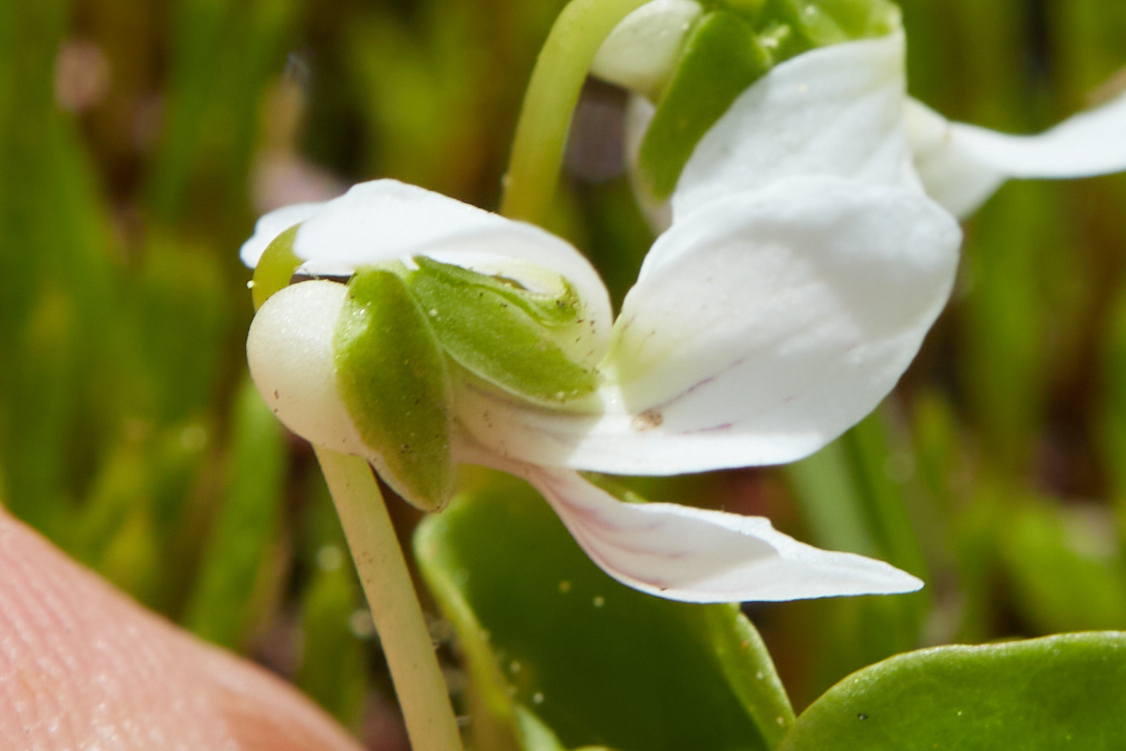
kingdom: Plantae
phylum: Tracheophyta
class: Magnoliopsida
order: Malpighiales
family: Violaceae
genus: Viola
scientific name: Viola macloskeyi
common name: Macloskey's violet
